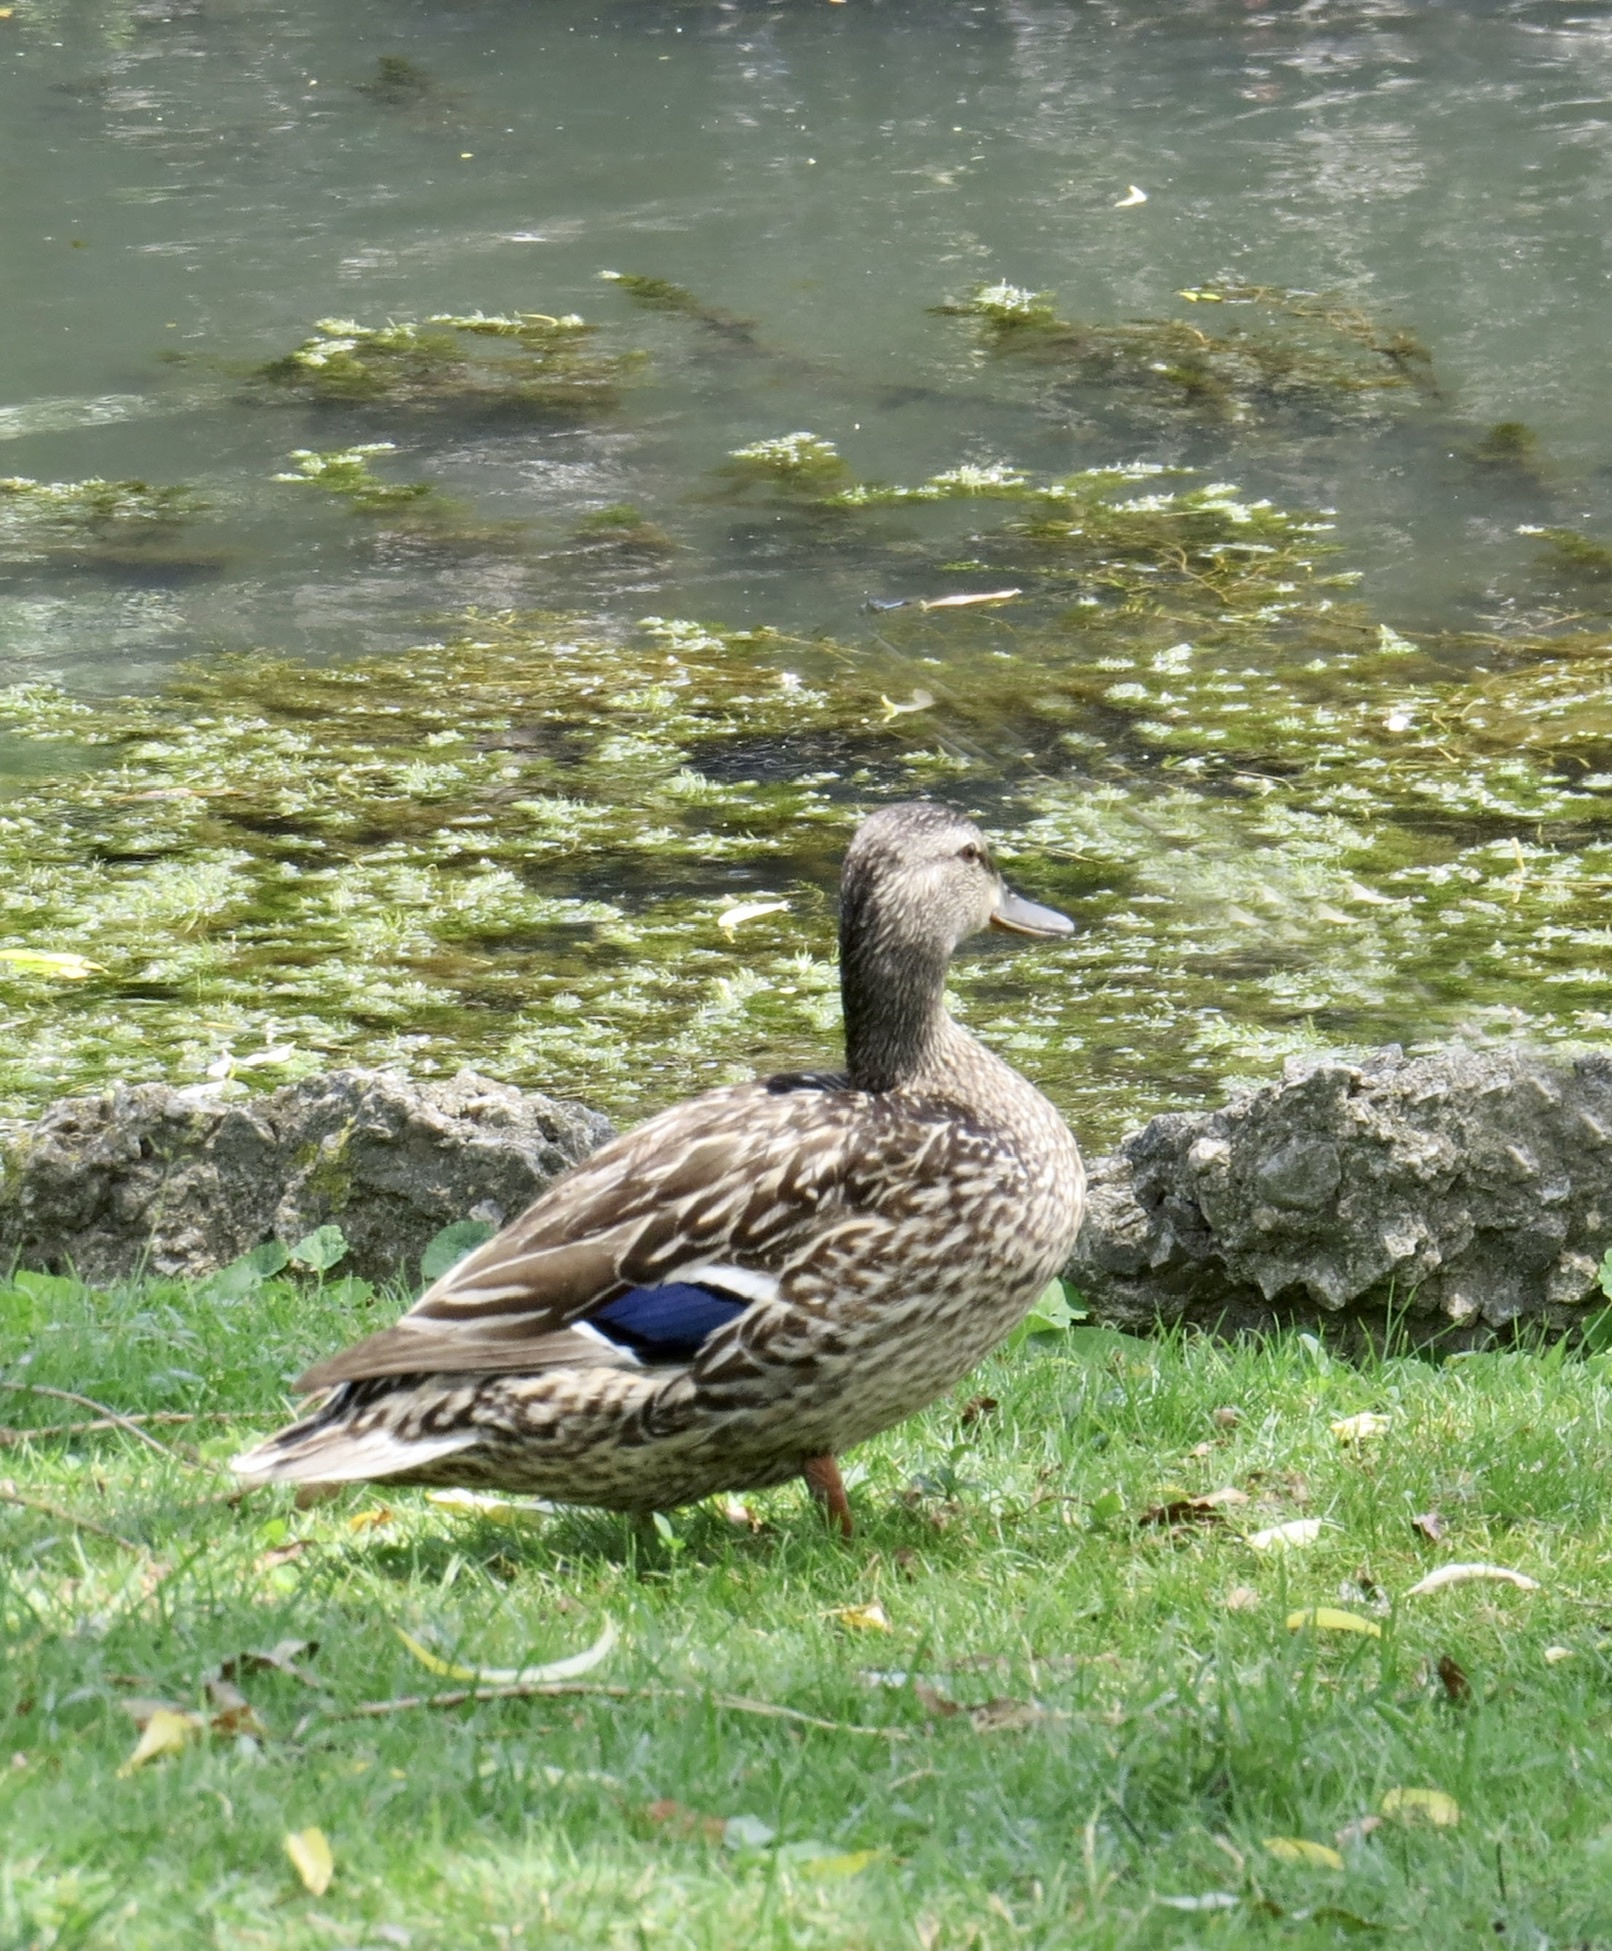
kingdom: Animalia
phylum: Chordata
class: Aves
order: Anseriformes
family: Anatidae
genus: Anas
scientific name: Anas platyrhynchos
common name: Mallard
